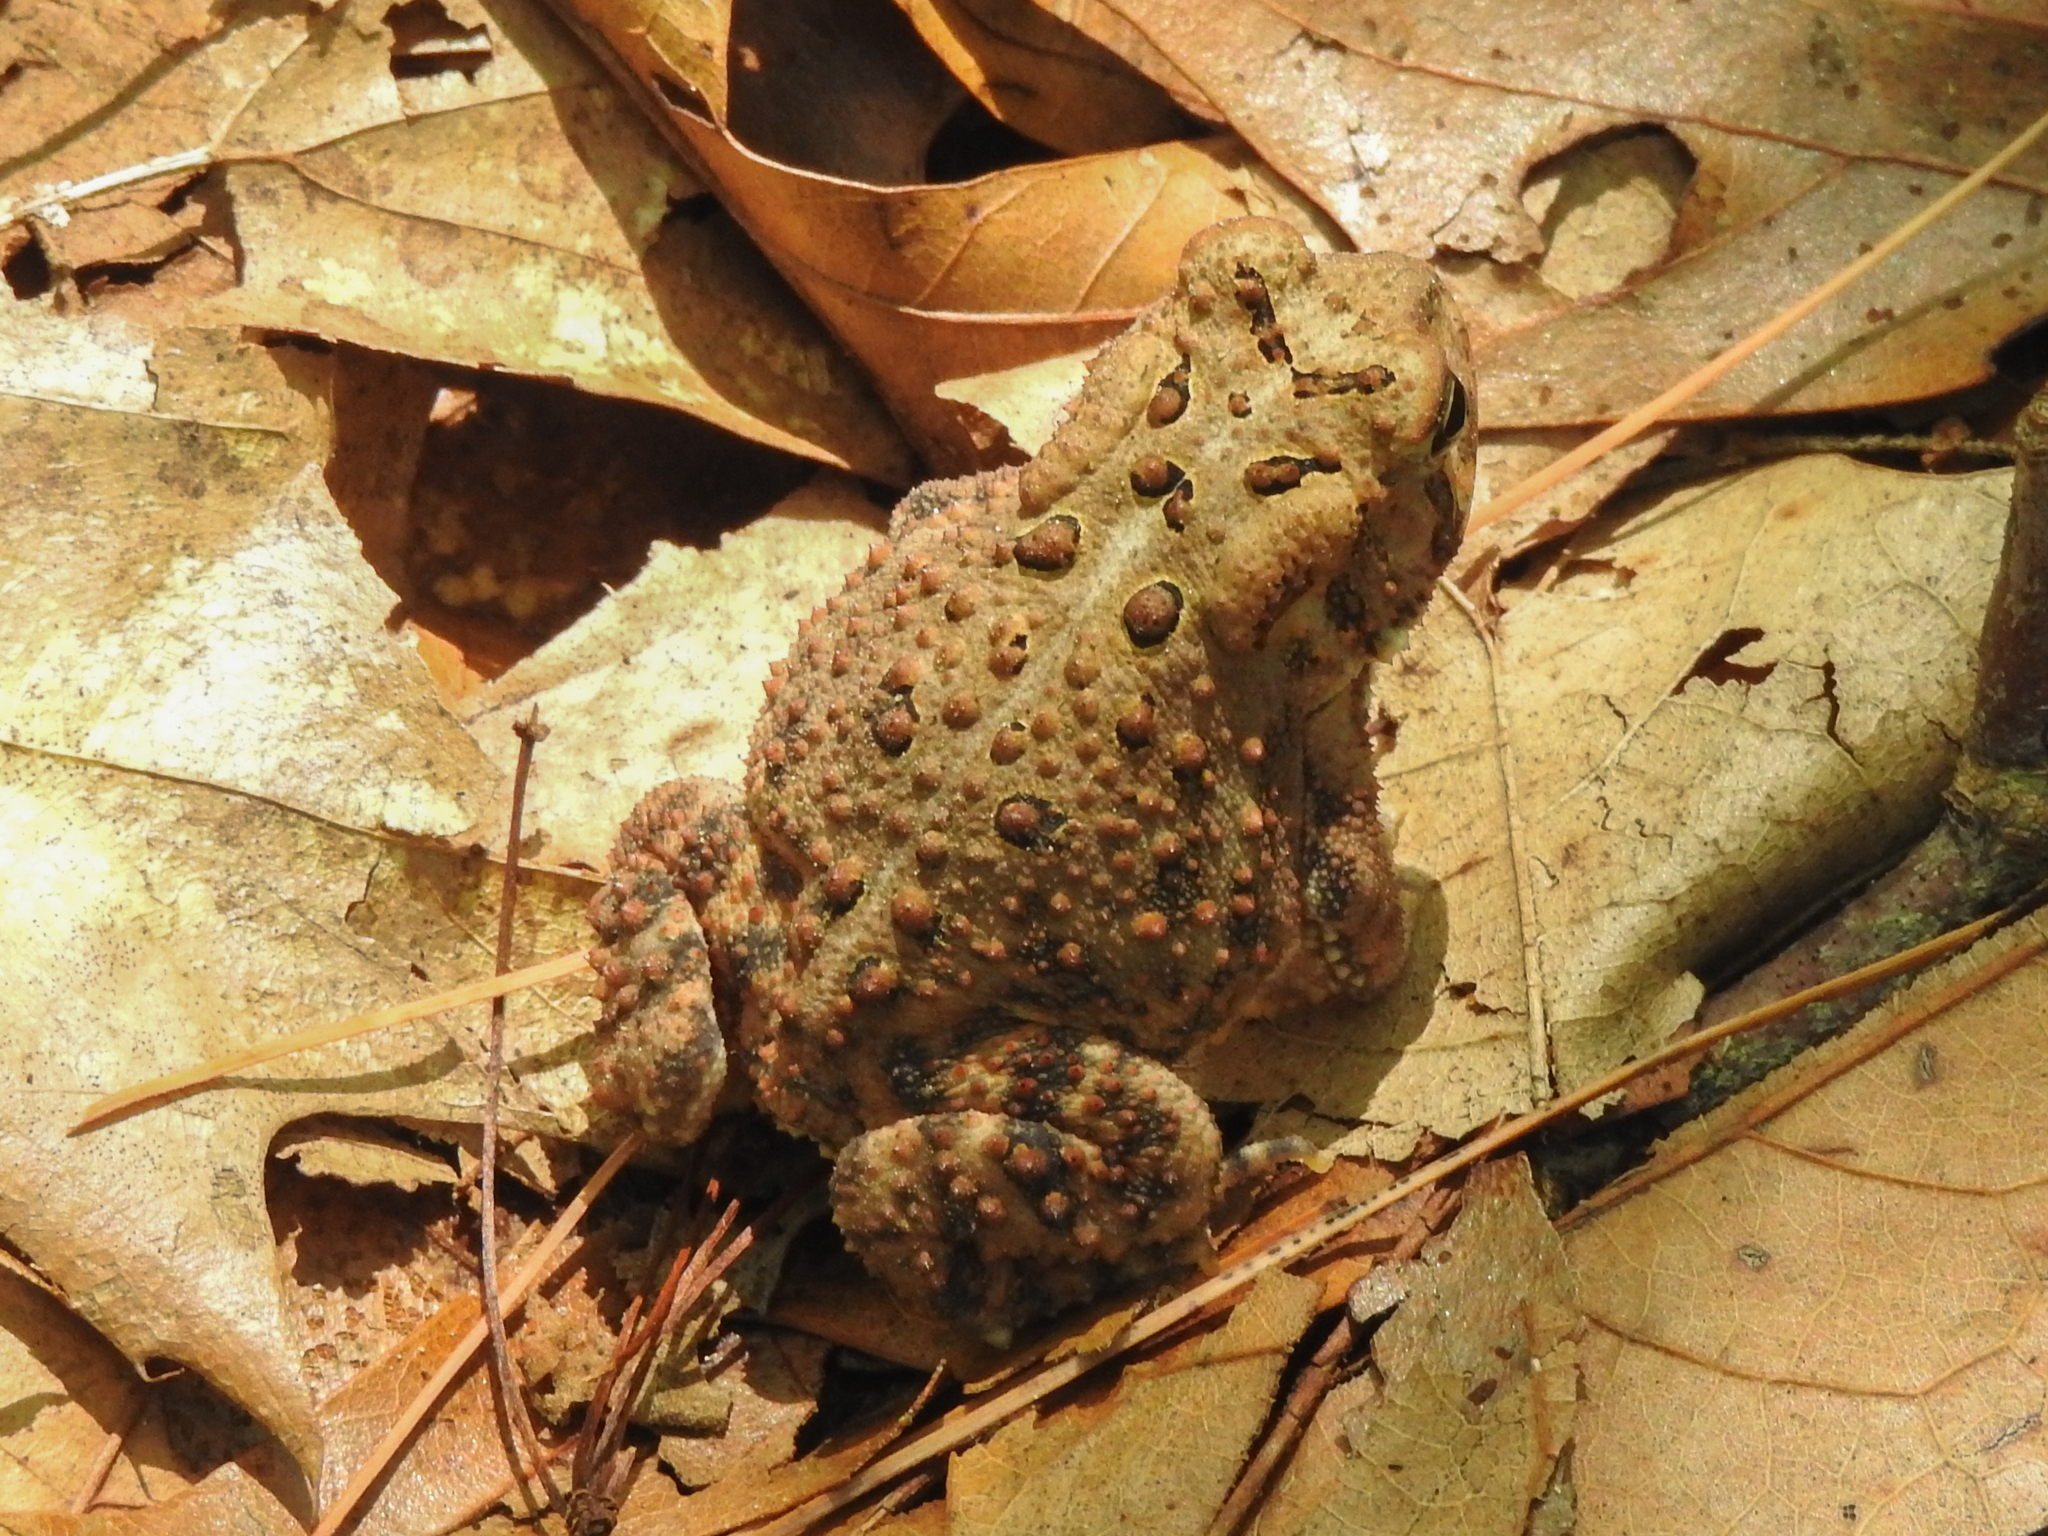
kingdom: Animalia
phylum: Chordata
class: Amphibia
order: Anura
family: Bufonidae
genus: Anaxyrus
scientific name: Anaxyrus americanus
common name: American toad
